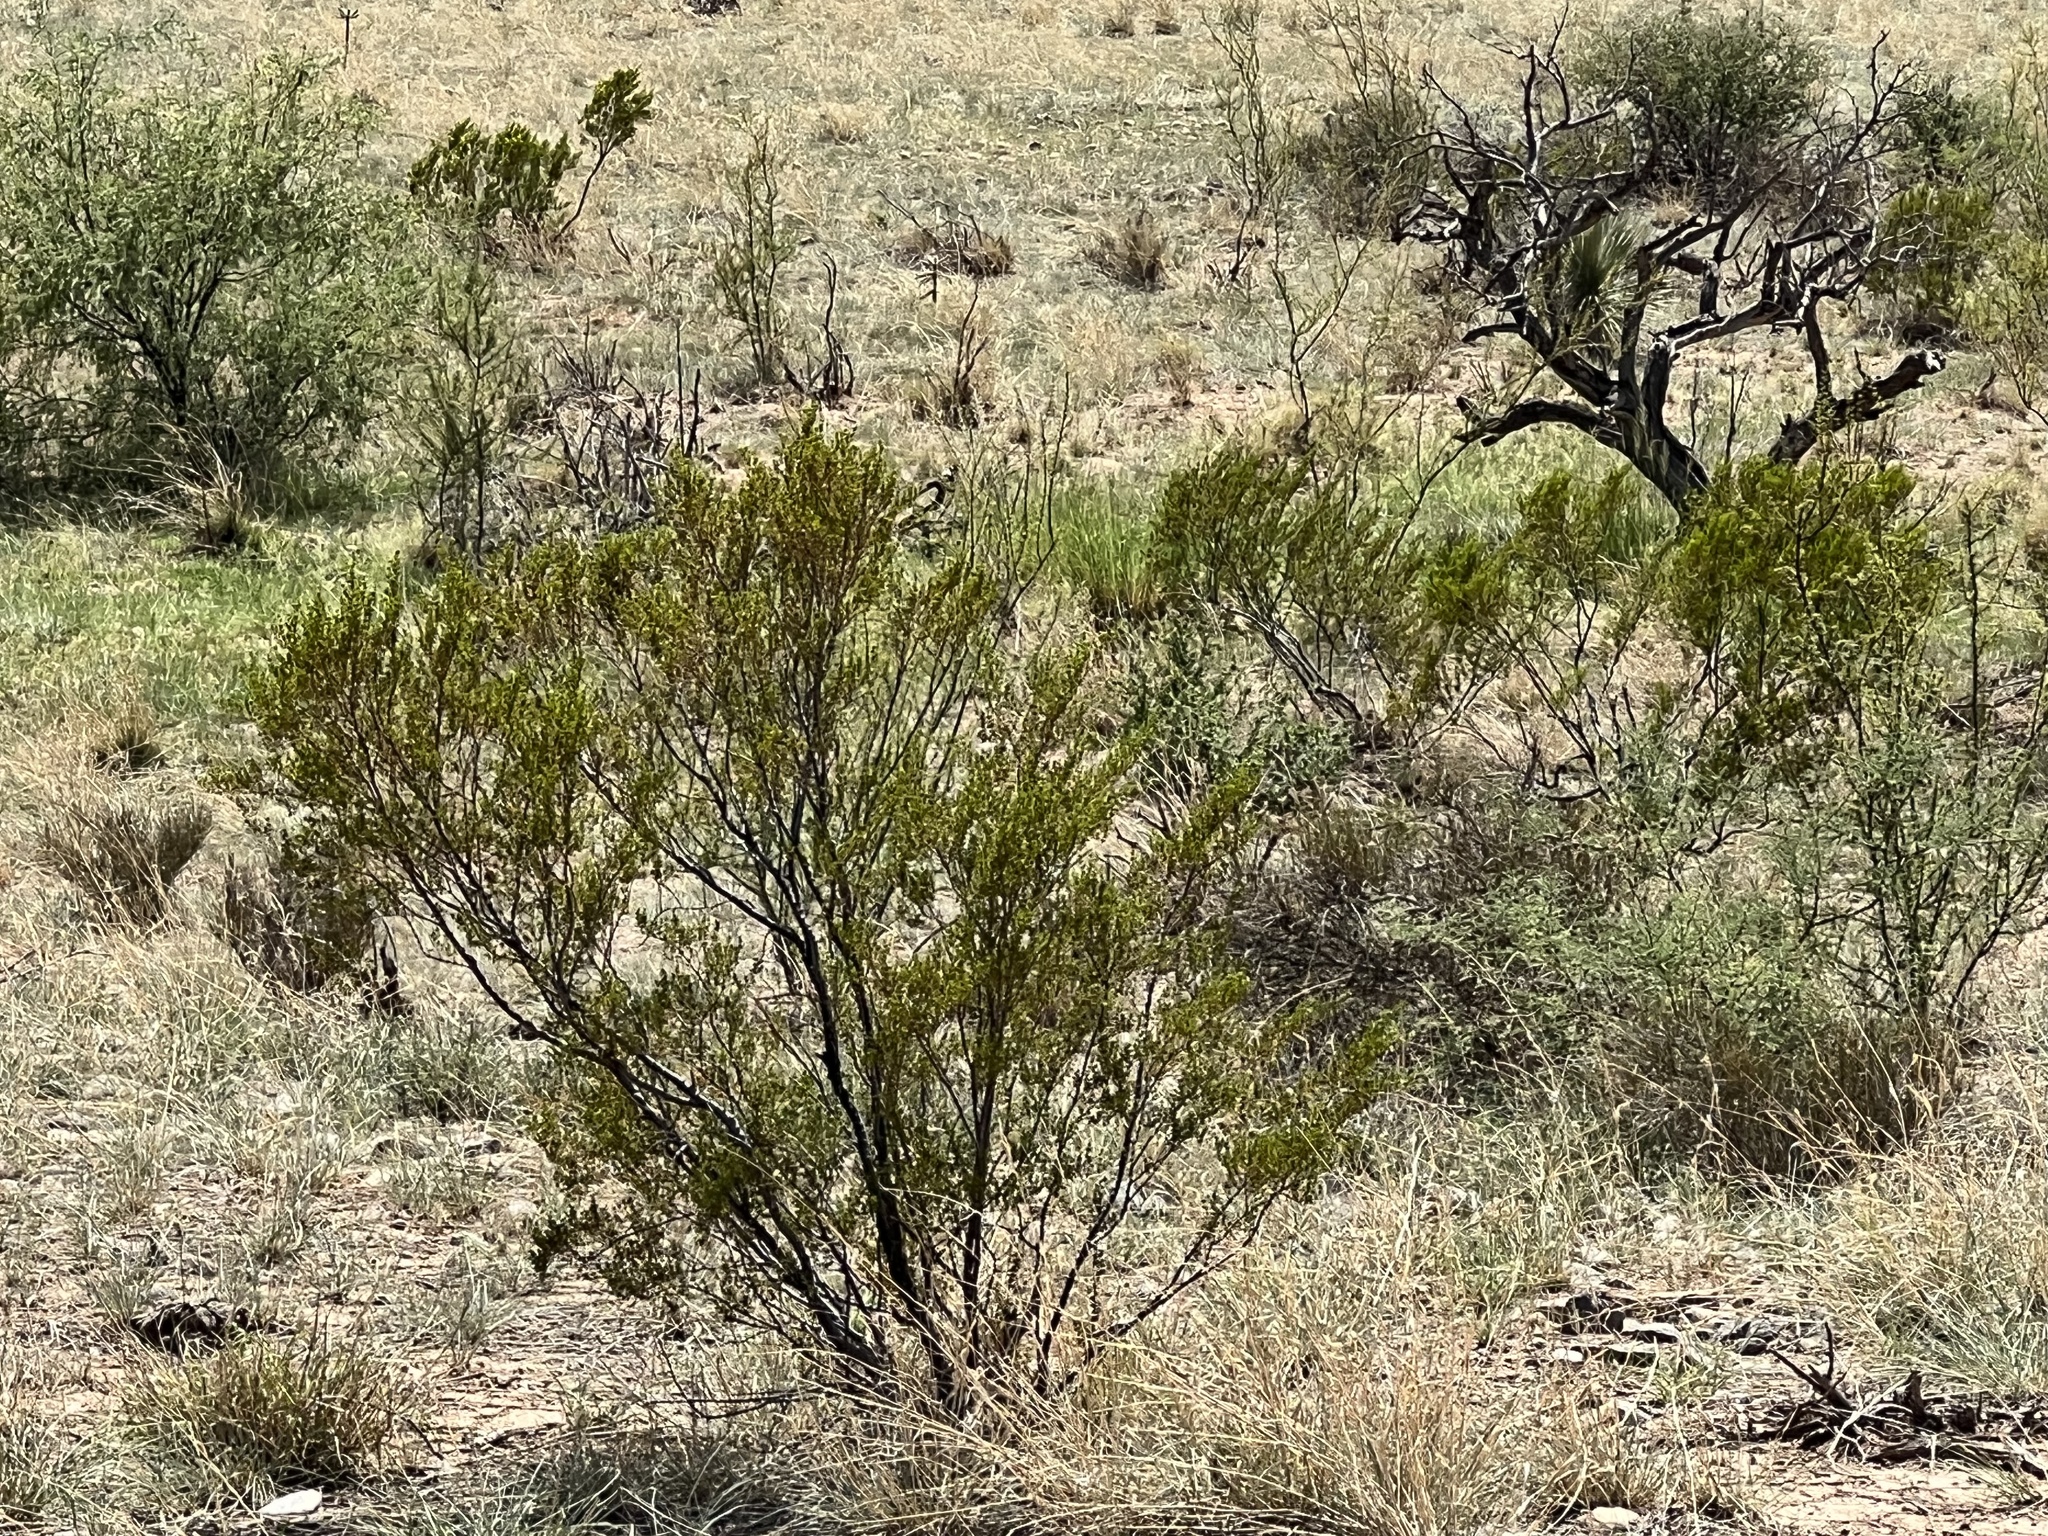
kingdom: Plantae
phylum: Tracheophyta
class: Magnoliopsida
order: Zygophyllales
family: Zygophyllaceae
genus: Larrea
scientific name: Larrea tridentata
